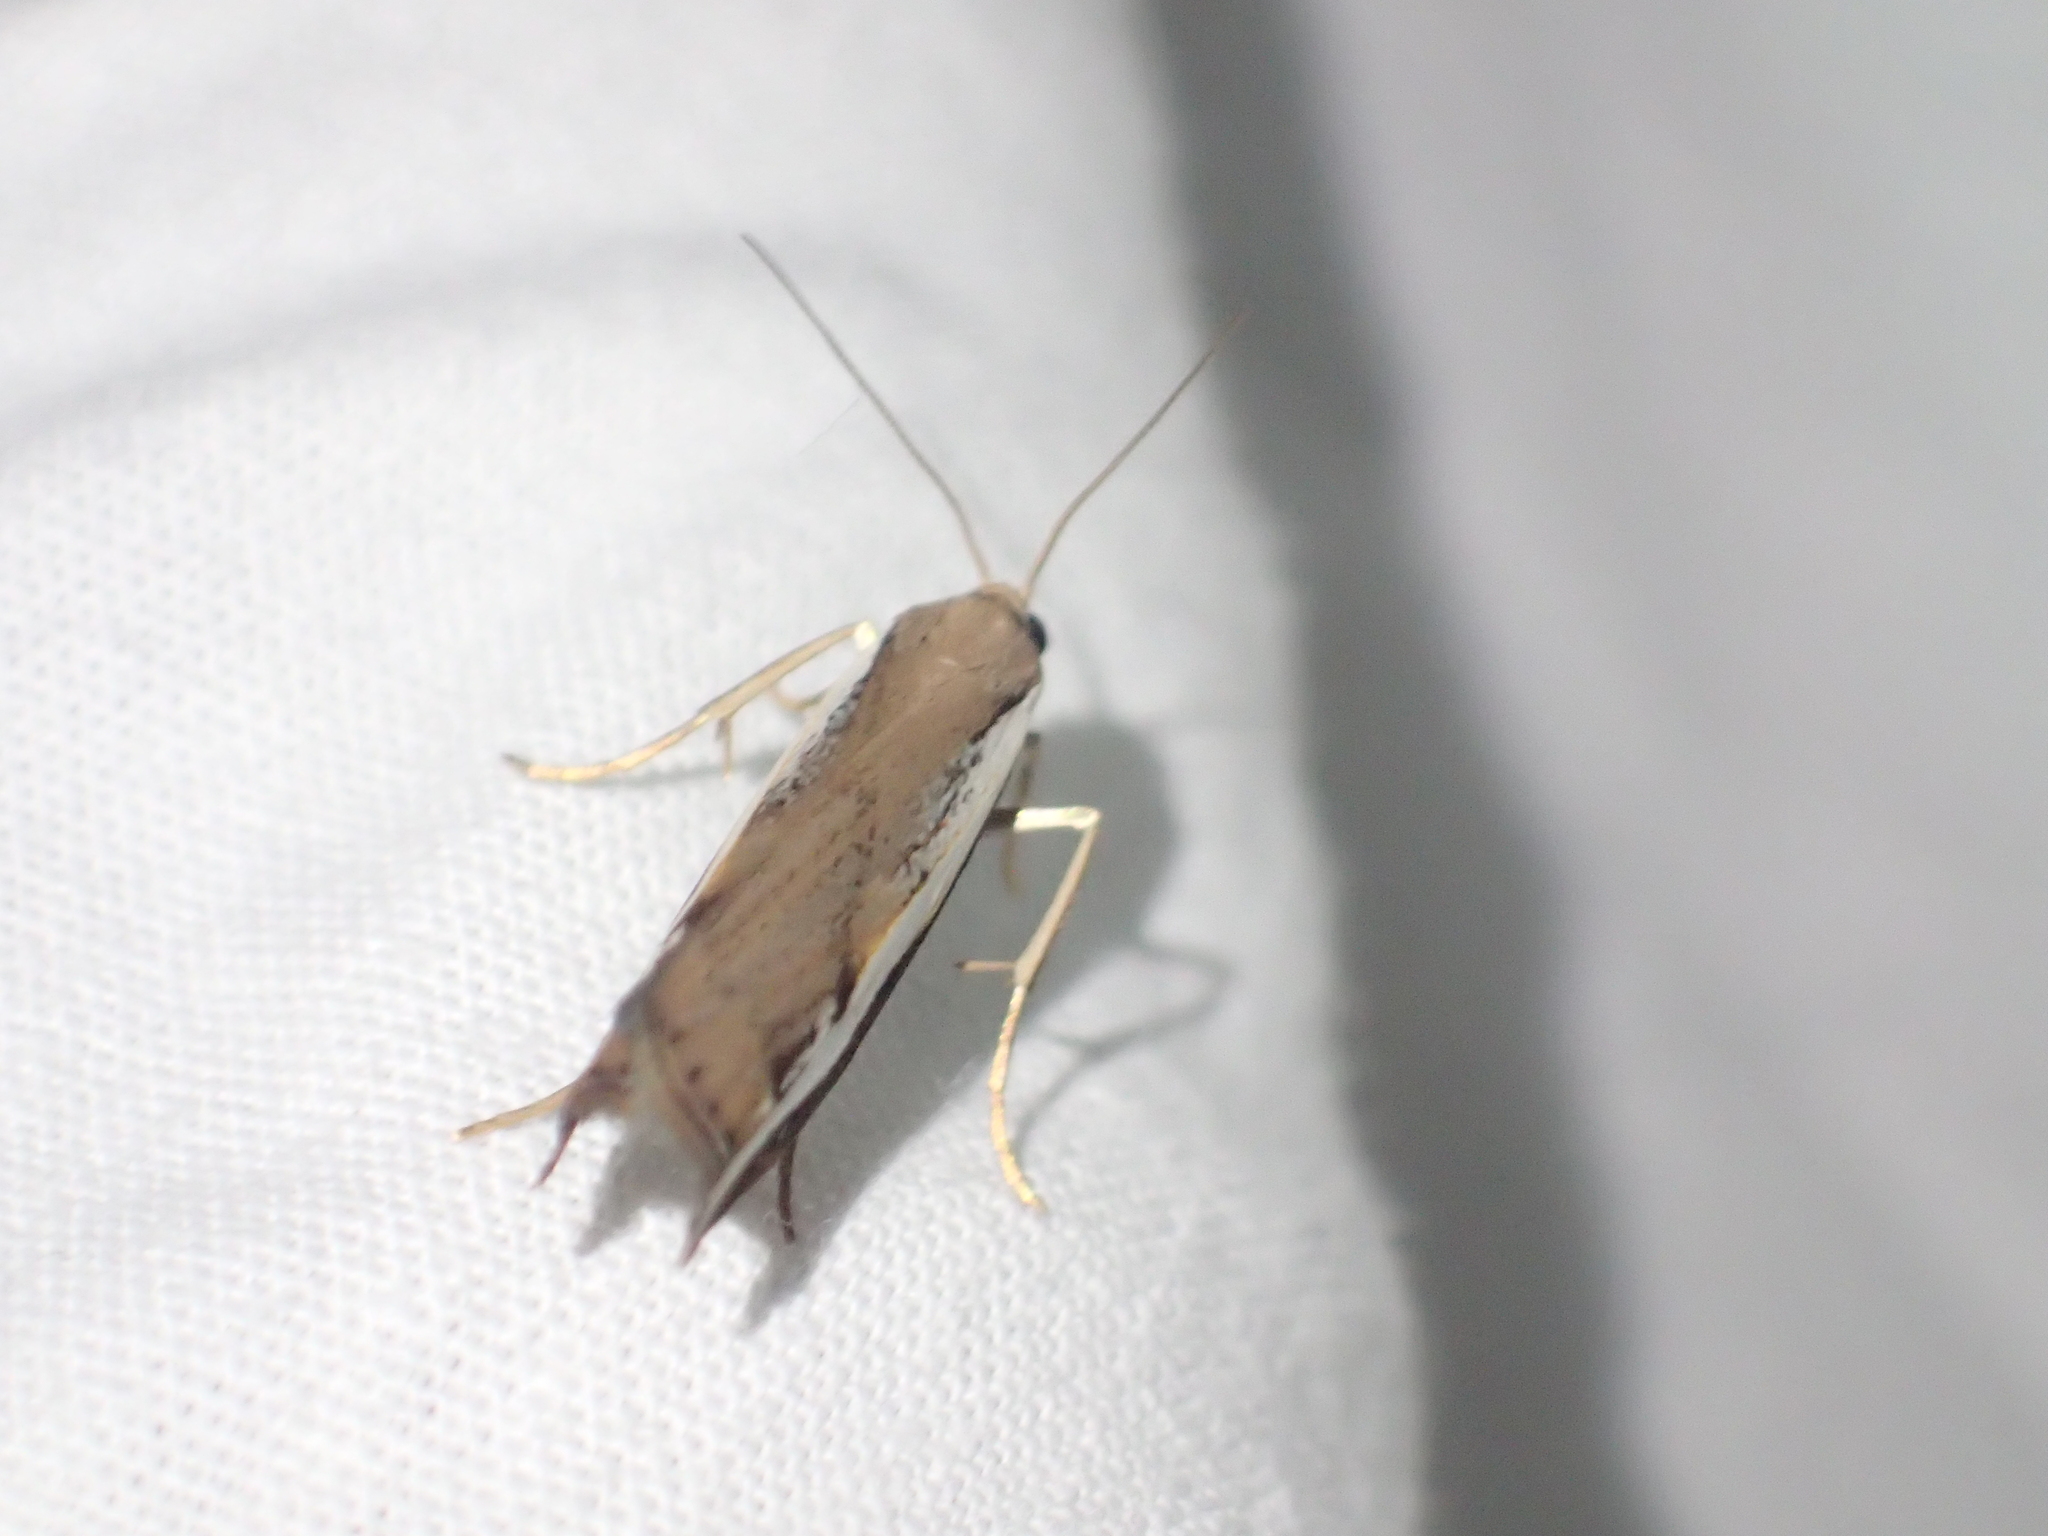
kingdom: Animalia
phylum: Arthropoda
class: Insecta
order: Lepidoptera
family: Crambidae
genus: Orocrambus
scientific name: Orocrambus flexuosellus
